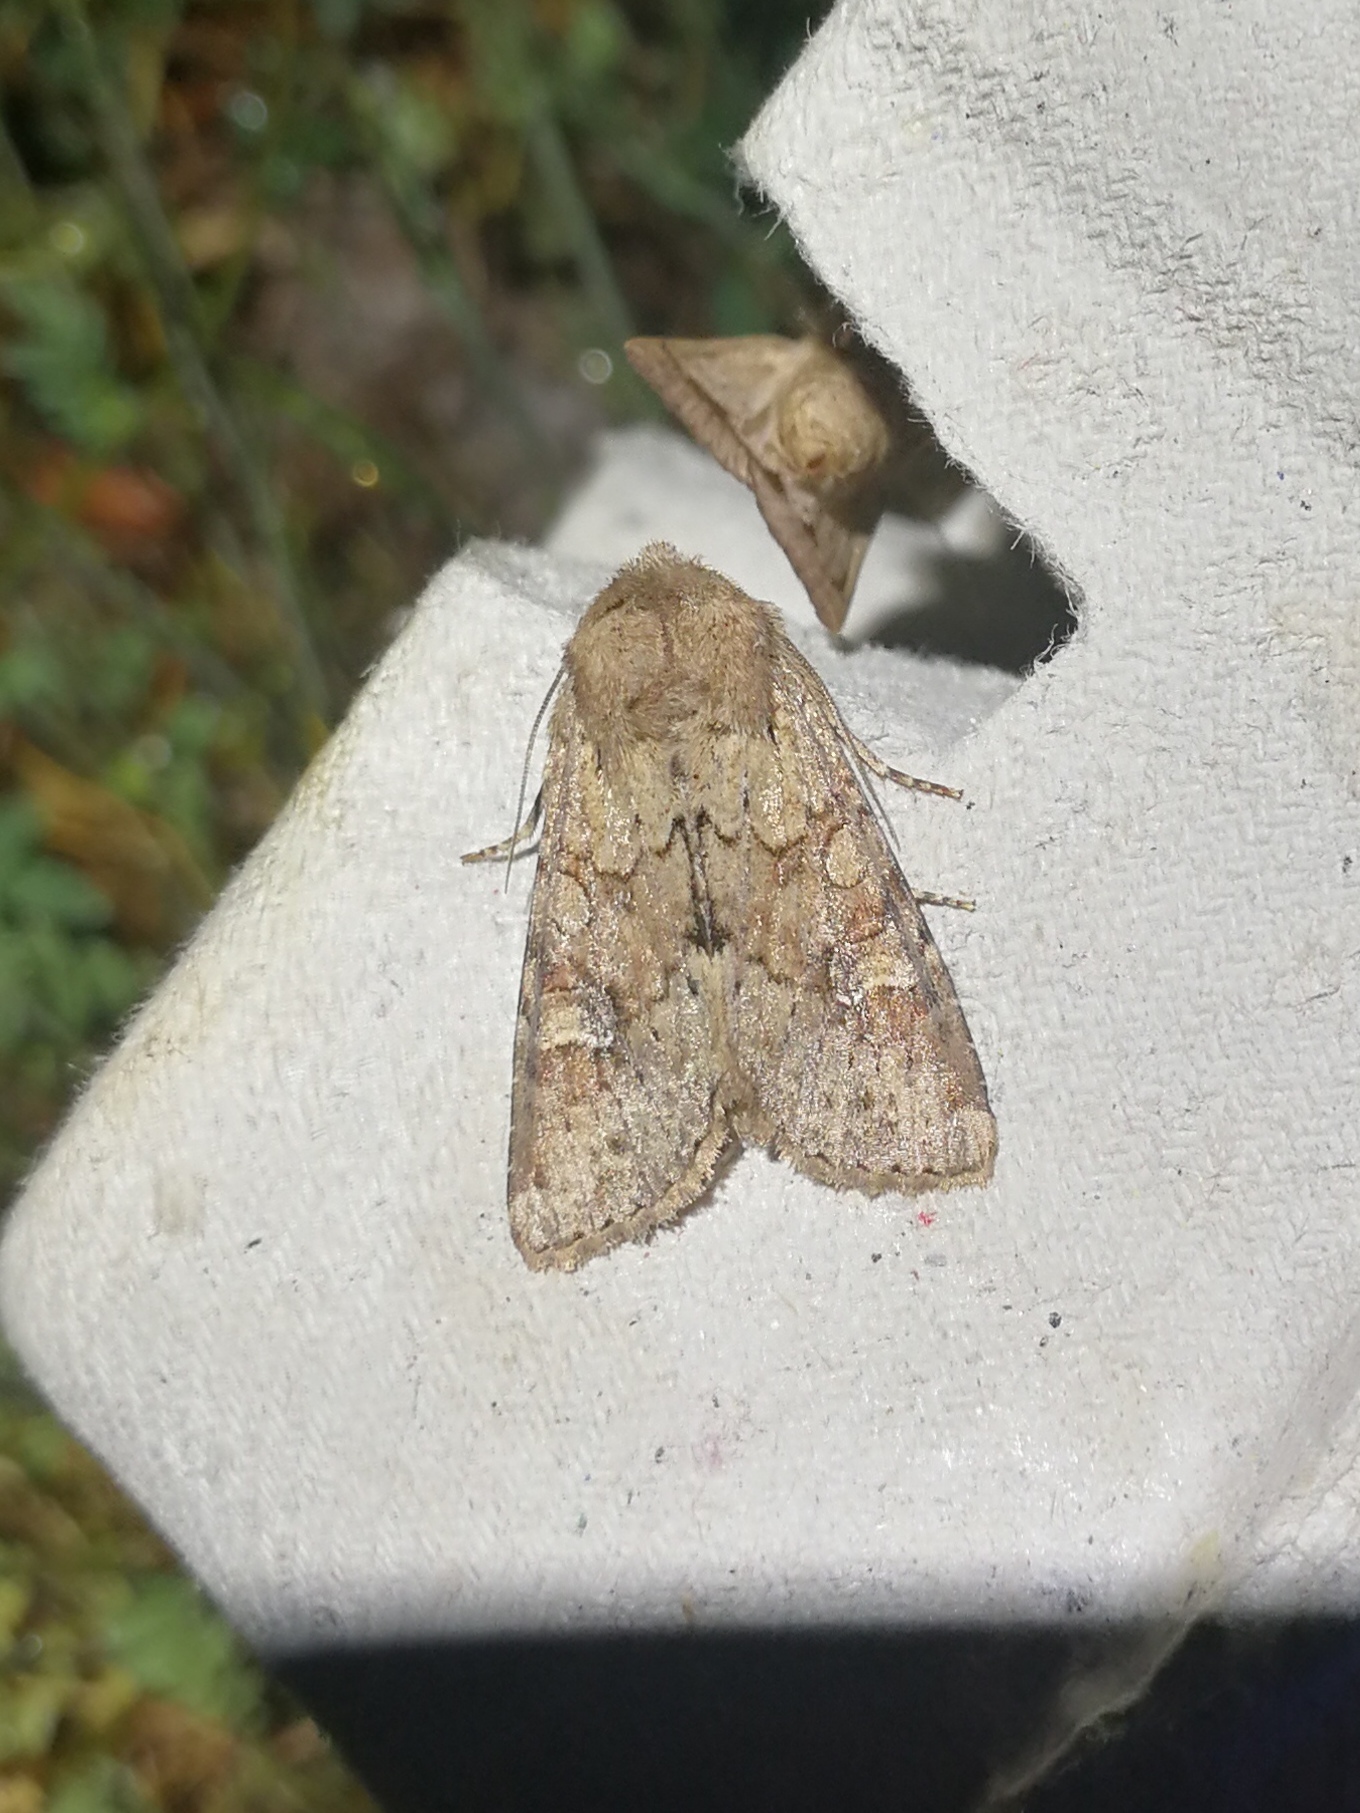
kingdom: Animalia
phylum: Arthropoda
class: Insecta
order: Lepidoptera
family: Noctuidae
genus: Apamea
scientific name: Apamea sordens
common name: Rustic shoulder-knot
